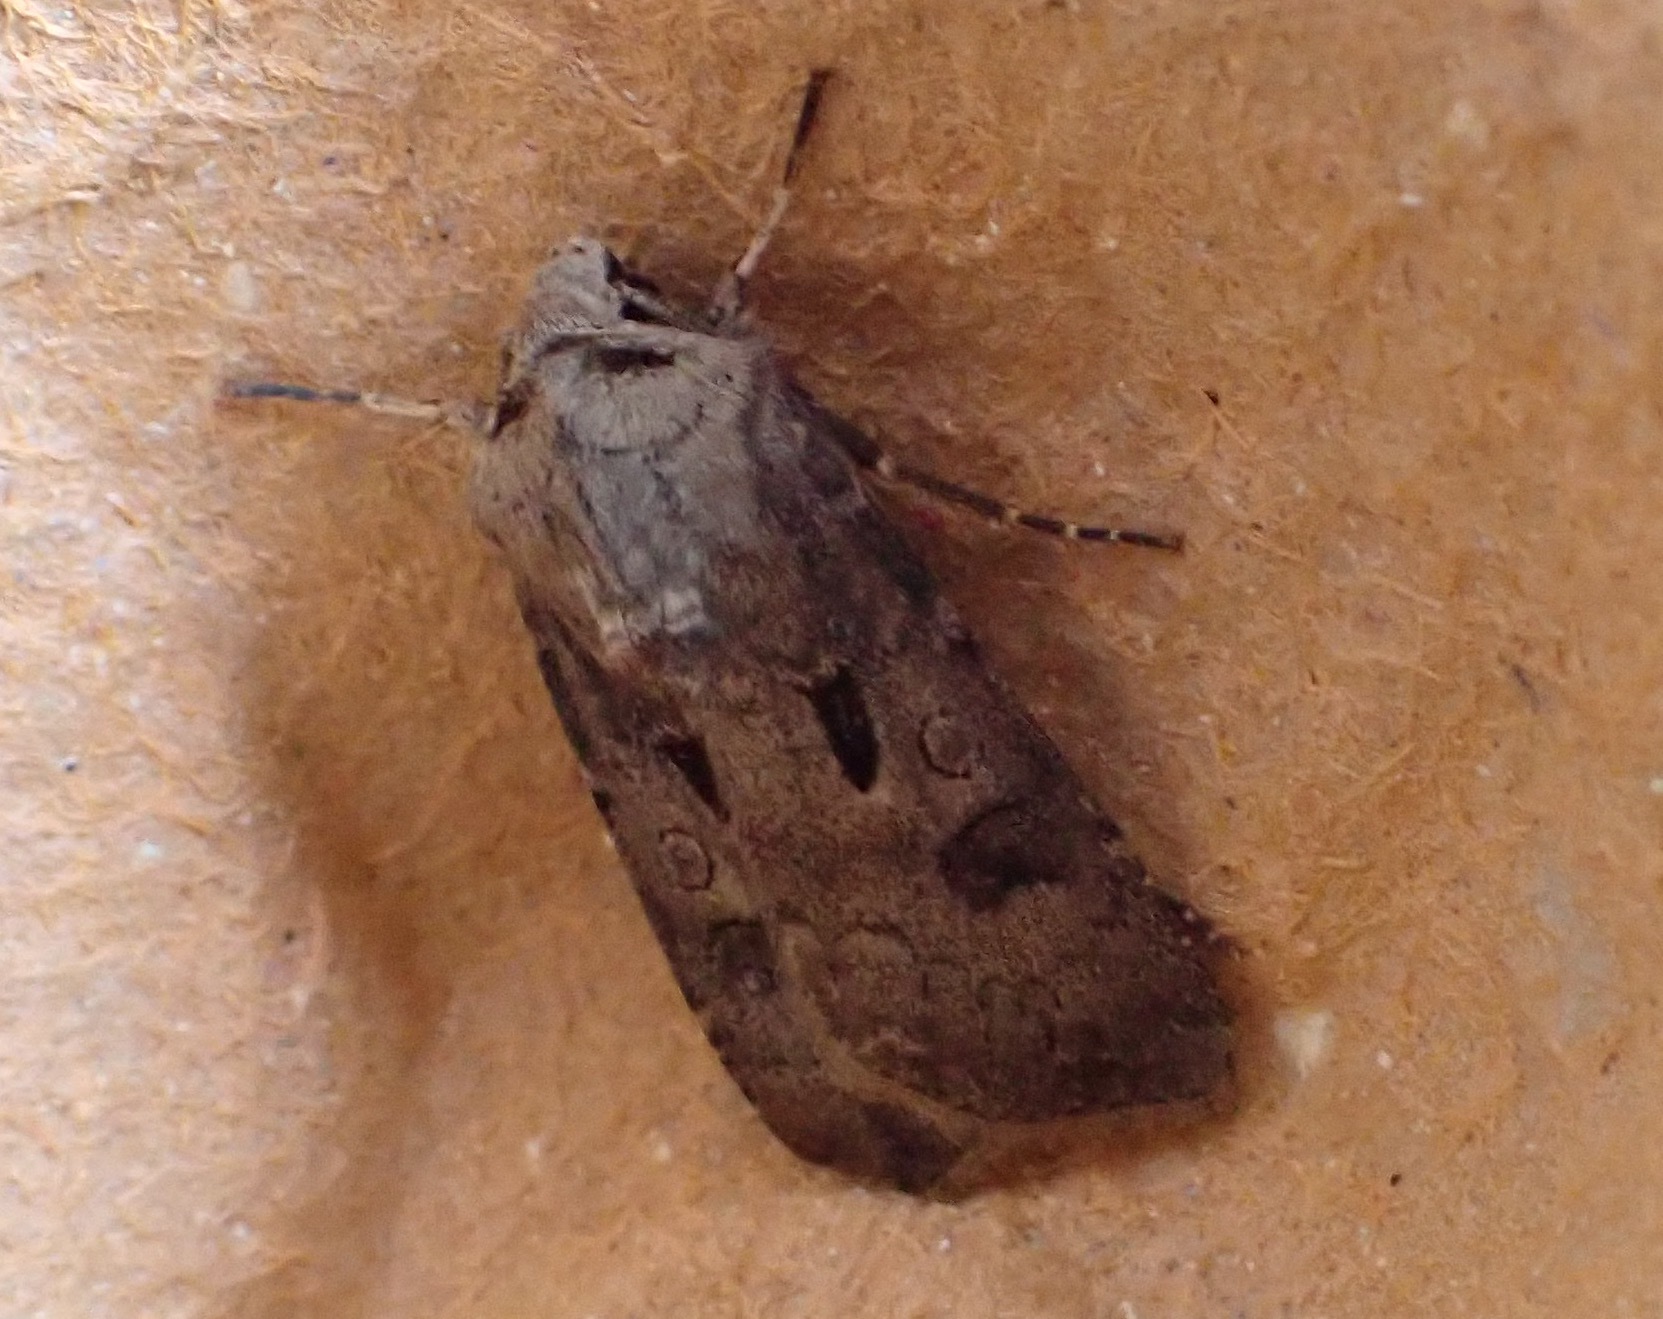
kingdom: Animalia
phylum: Arthropoda
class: Insecta
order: Lepidoptera
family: Noctuidae
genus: Agrotis
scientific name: Agrotis exclamationis
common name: Heart and dart
